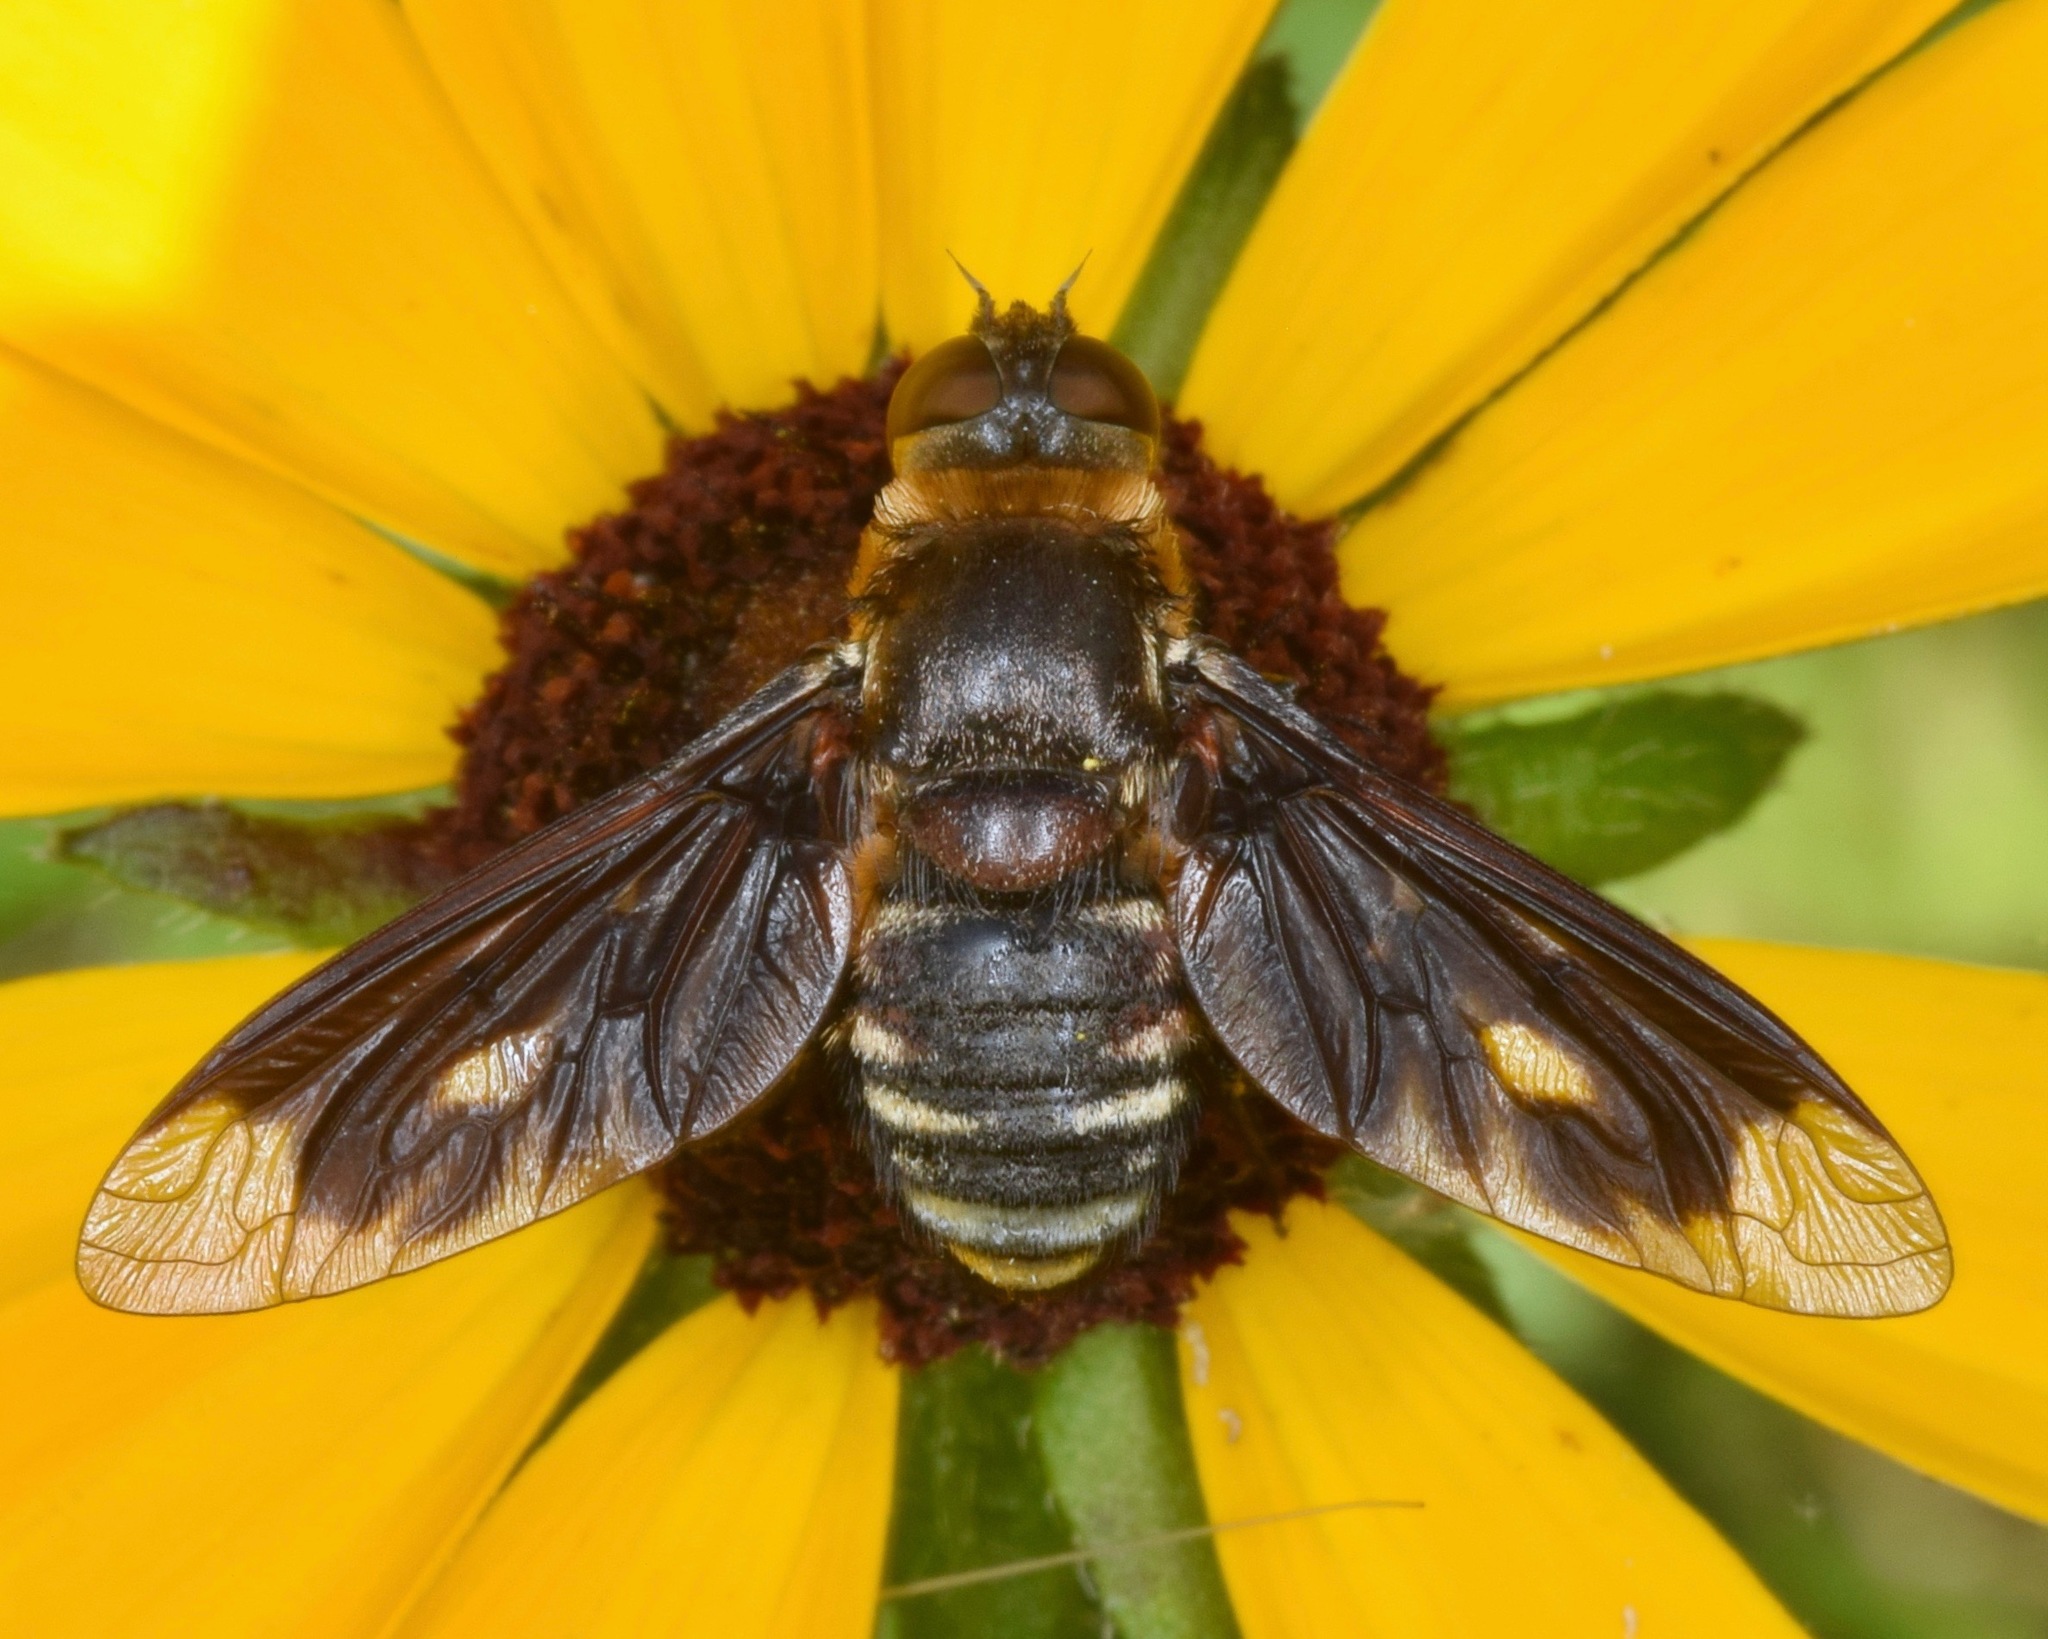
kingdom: Animalia
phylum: Arthropoda
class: Insecta
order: Diptera
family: Bombyliidae
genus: Exoprosopa
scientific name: Exoprosopa meigenii
